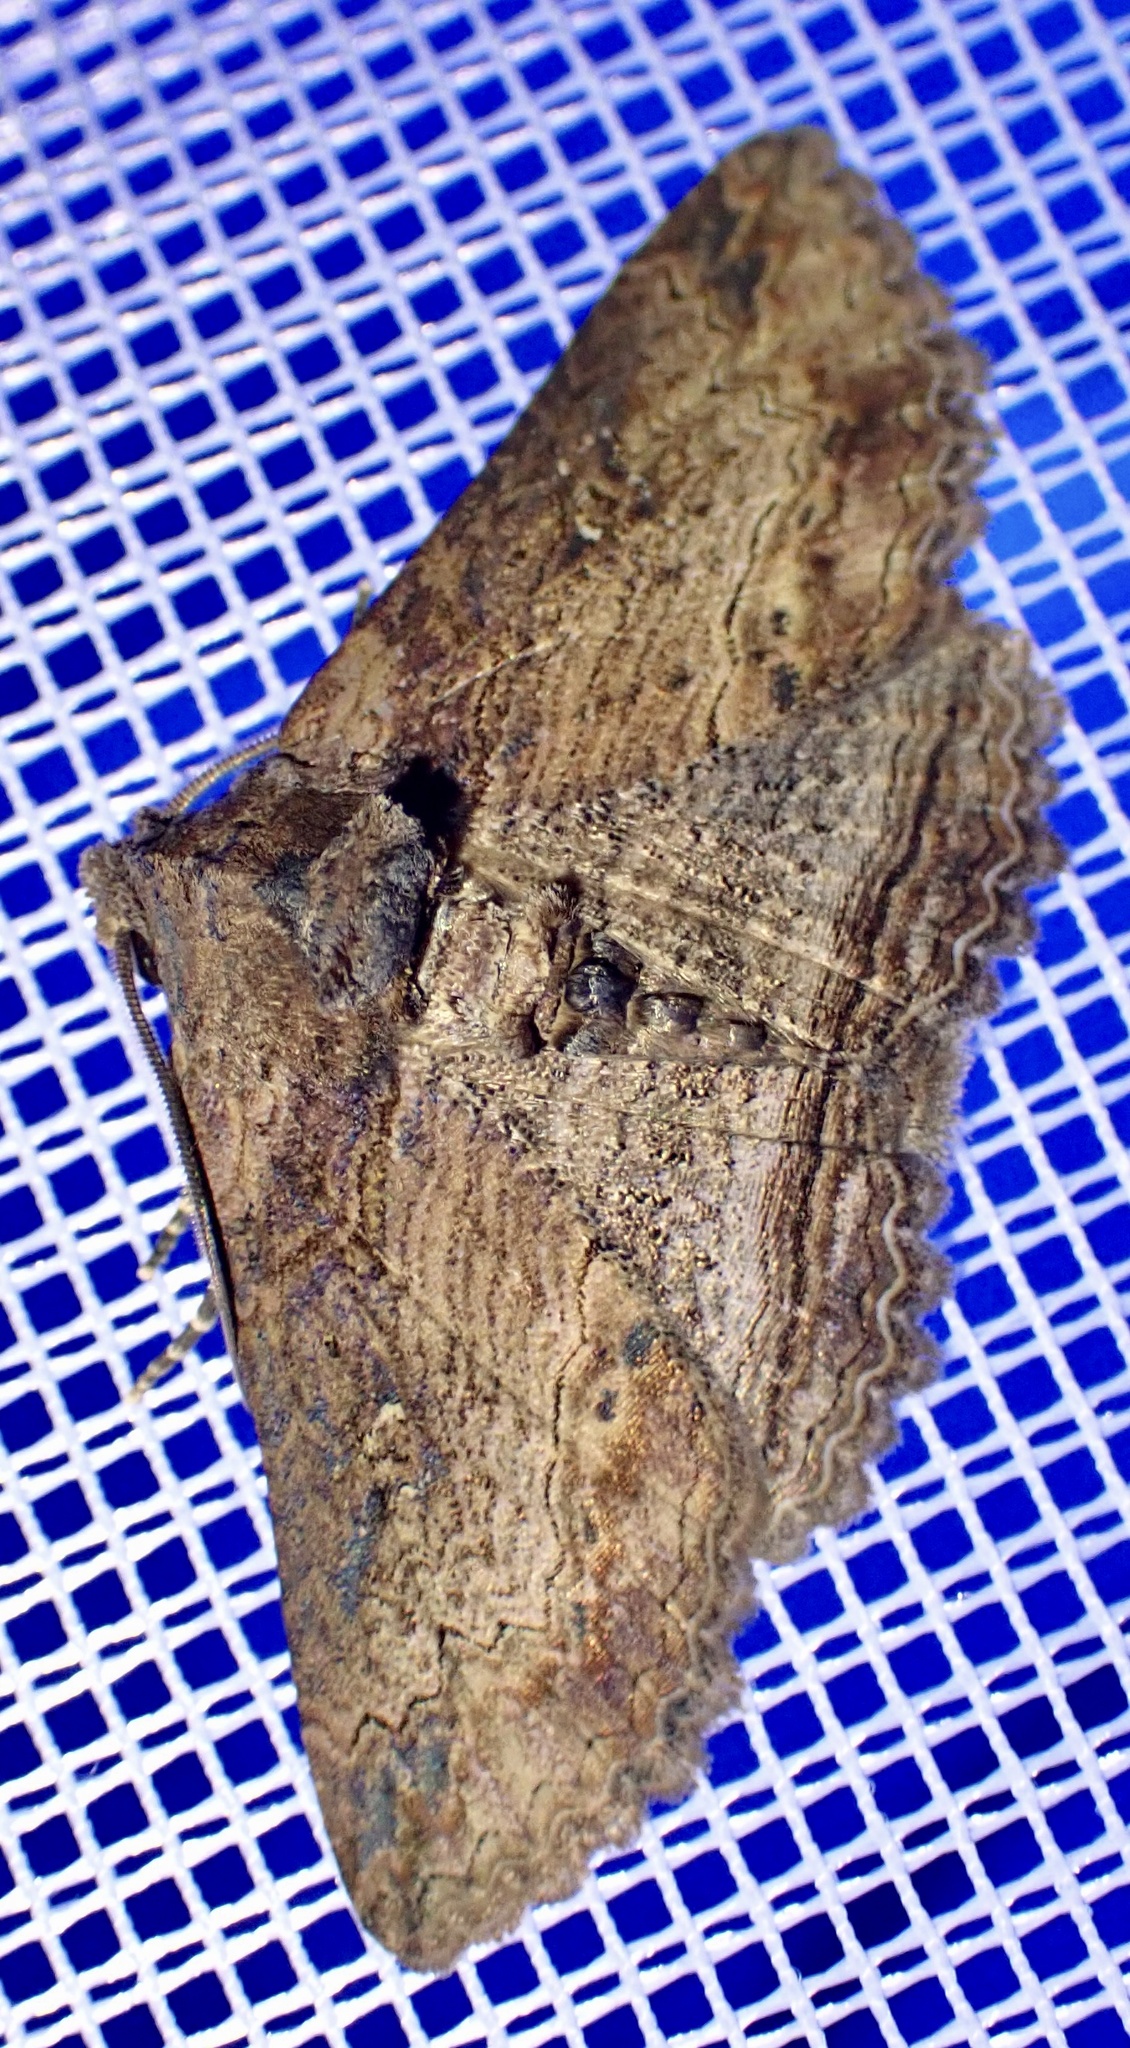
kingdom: Animalia
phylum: Arthropoda
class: Insecta
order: Lepidoptera
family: Erebidae
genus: Pericyma
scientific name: Pericyma mendax
